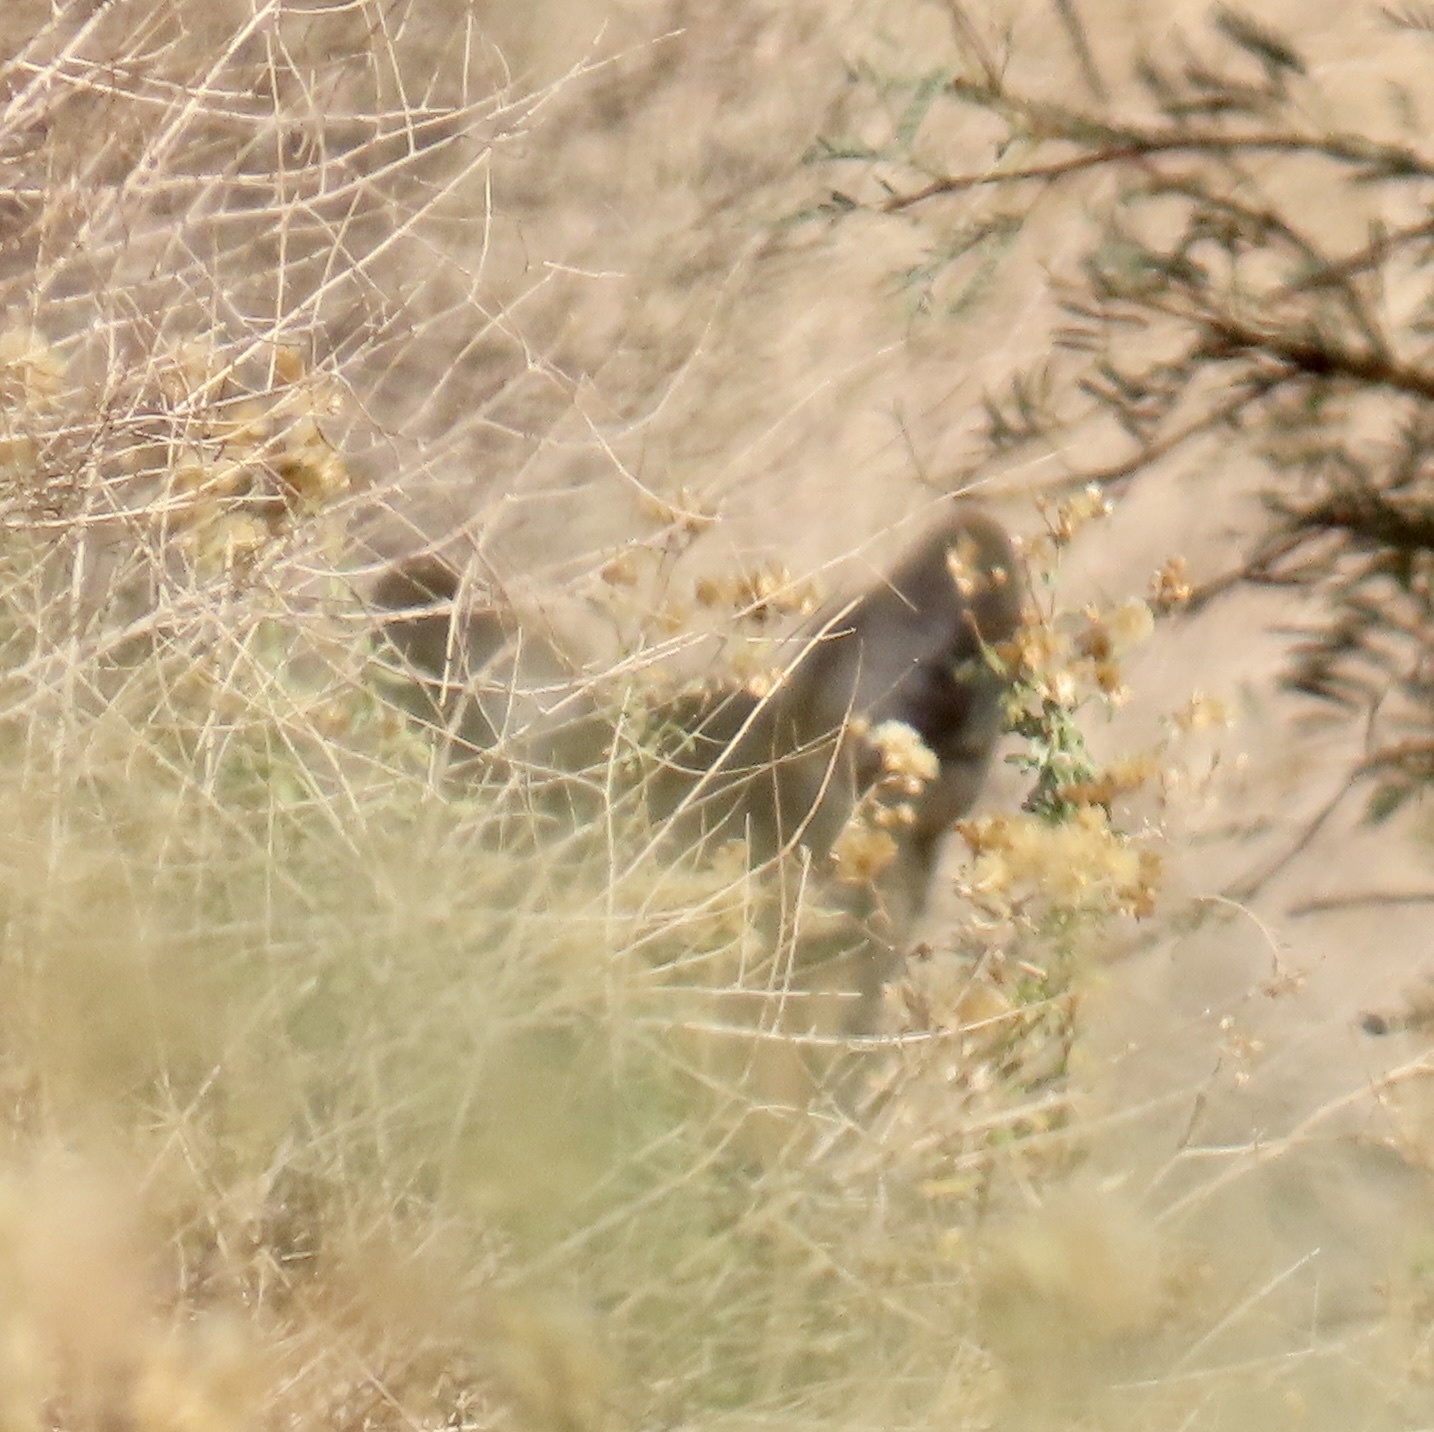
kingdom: Animalia
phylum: Chordata
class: Mammalia
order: Carnivora
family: Canidae
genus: Canis
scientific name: Canis latrans
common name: Coyote
